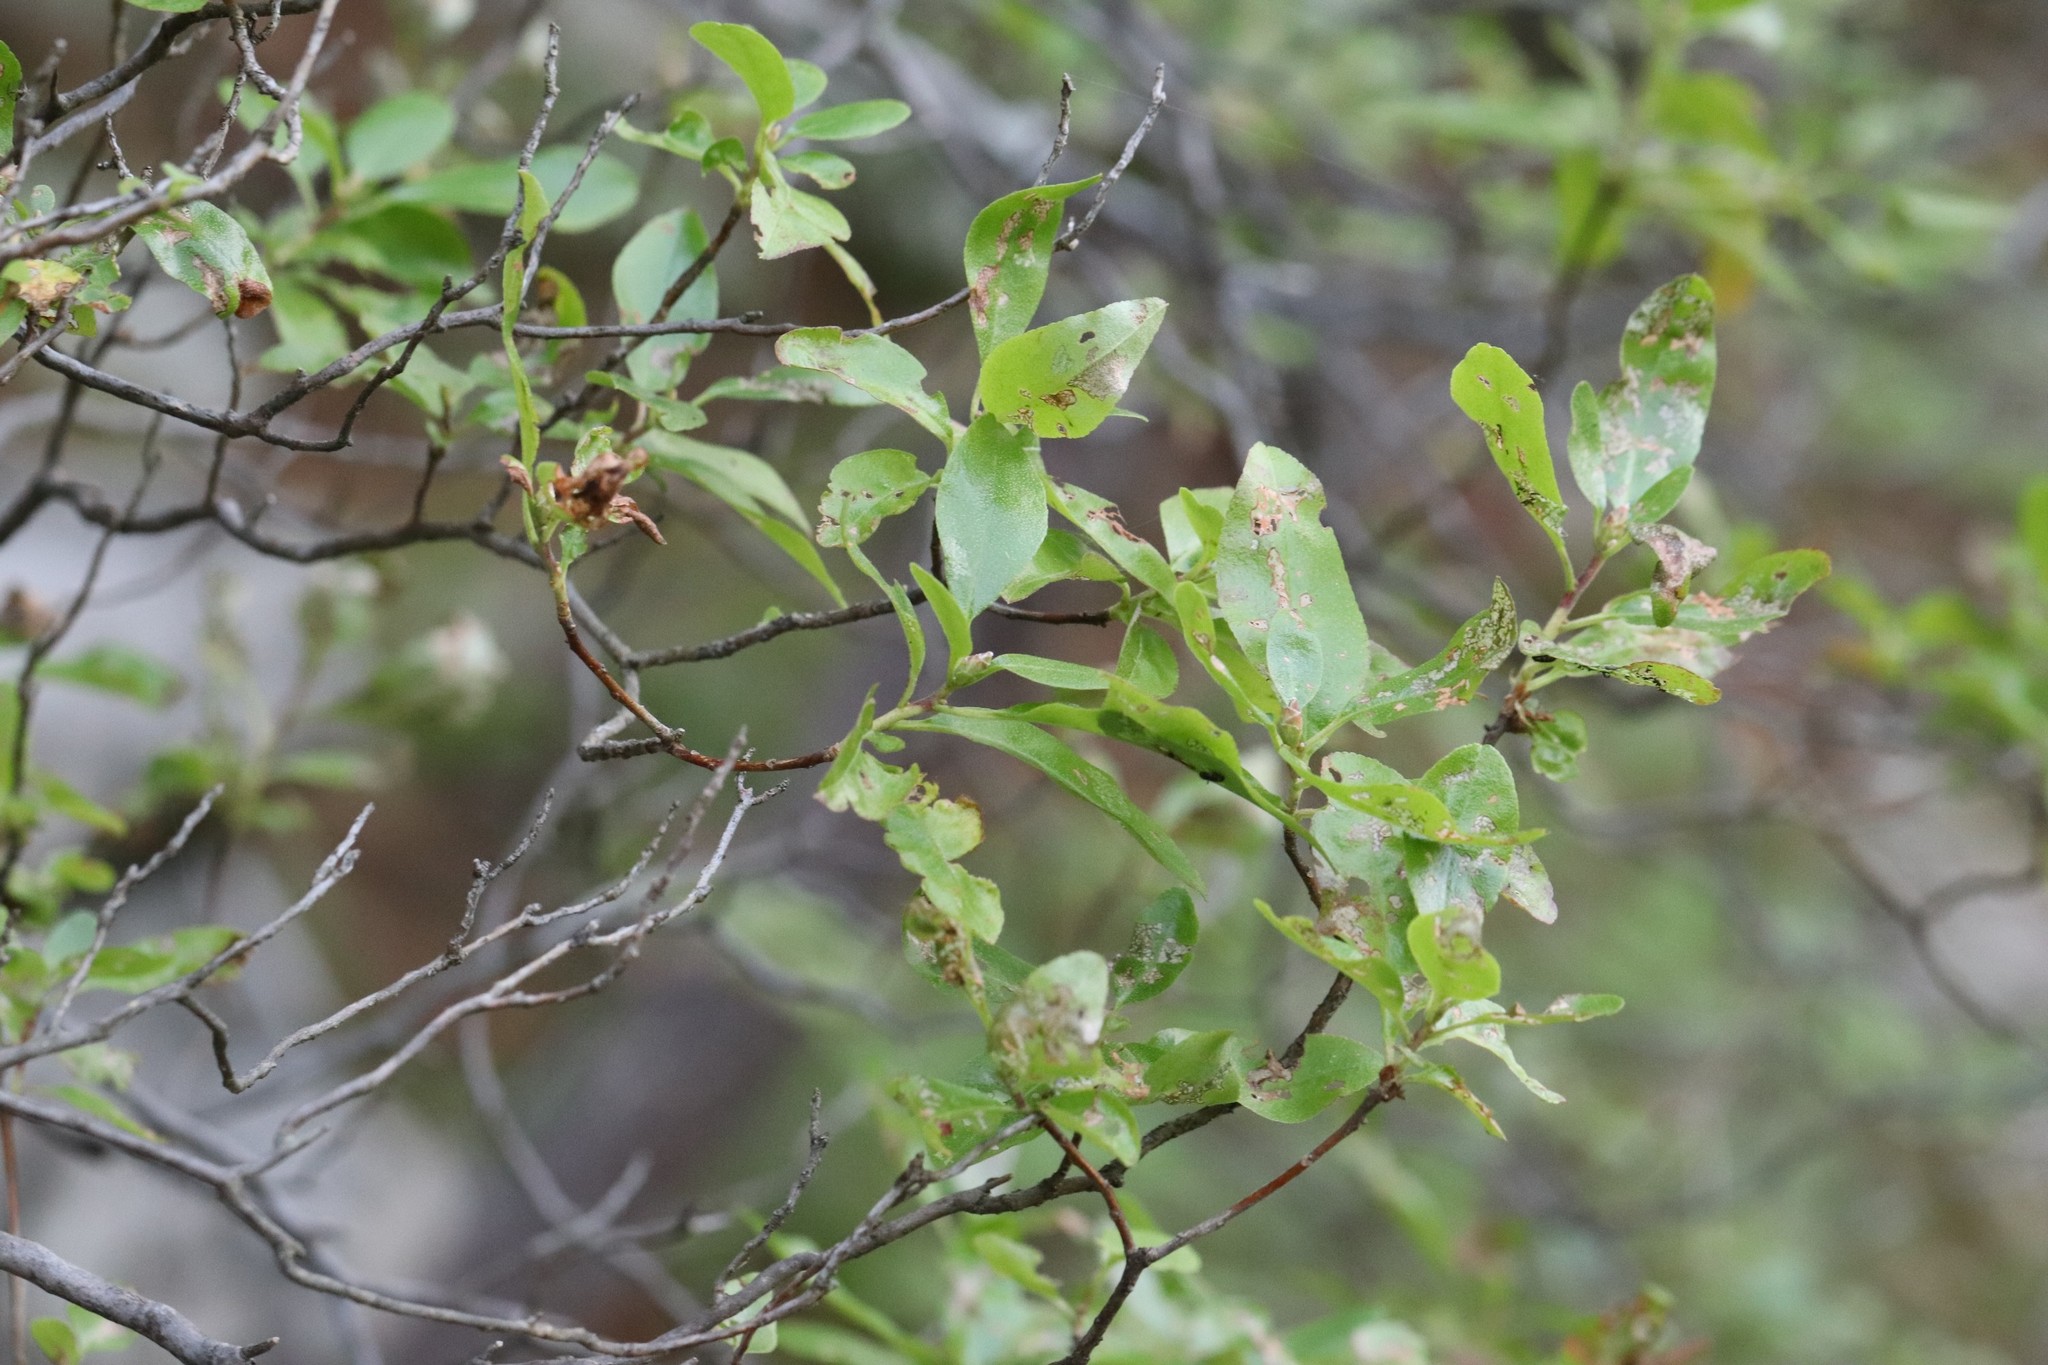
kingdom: Plantae
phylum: Tracheophyta
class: Magnoliopsida
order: Ericales
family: Ericaceae
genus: Rhododendron
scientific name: Rhododendron mucronulatum
